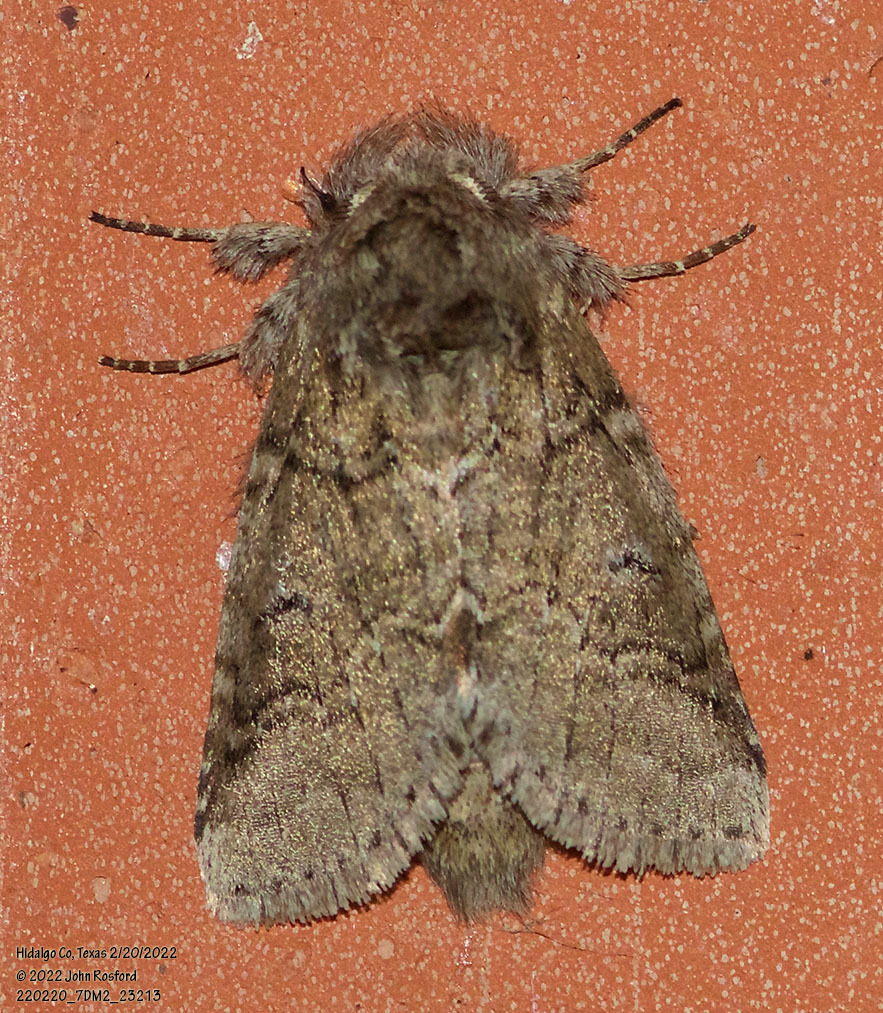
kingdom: Animalia
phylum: Arthropoda
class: Insecta
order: Lepidoptera
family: Notodontidae
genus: Lochmaeus
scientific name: Lochmaeus bilineata
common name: Double-lined prominent
